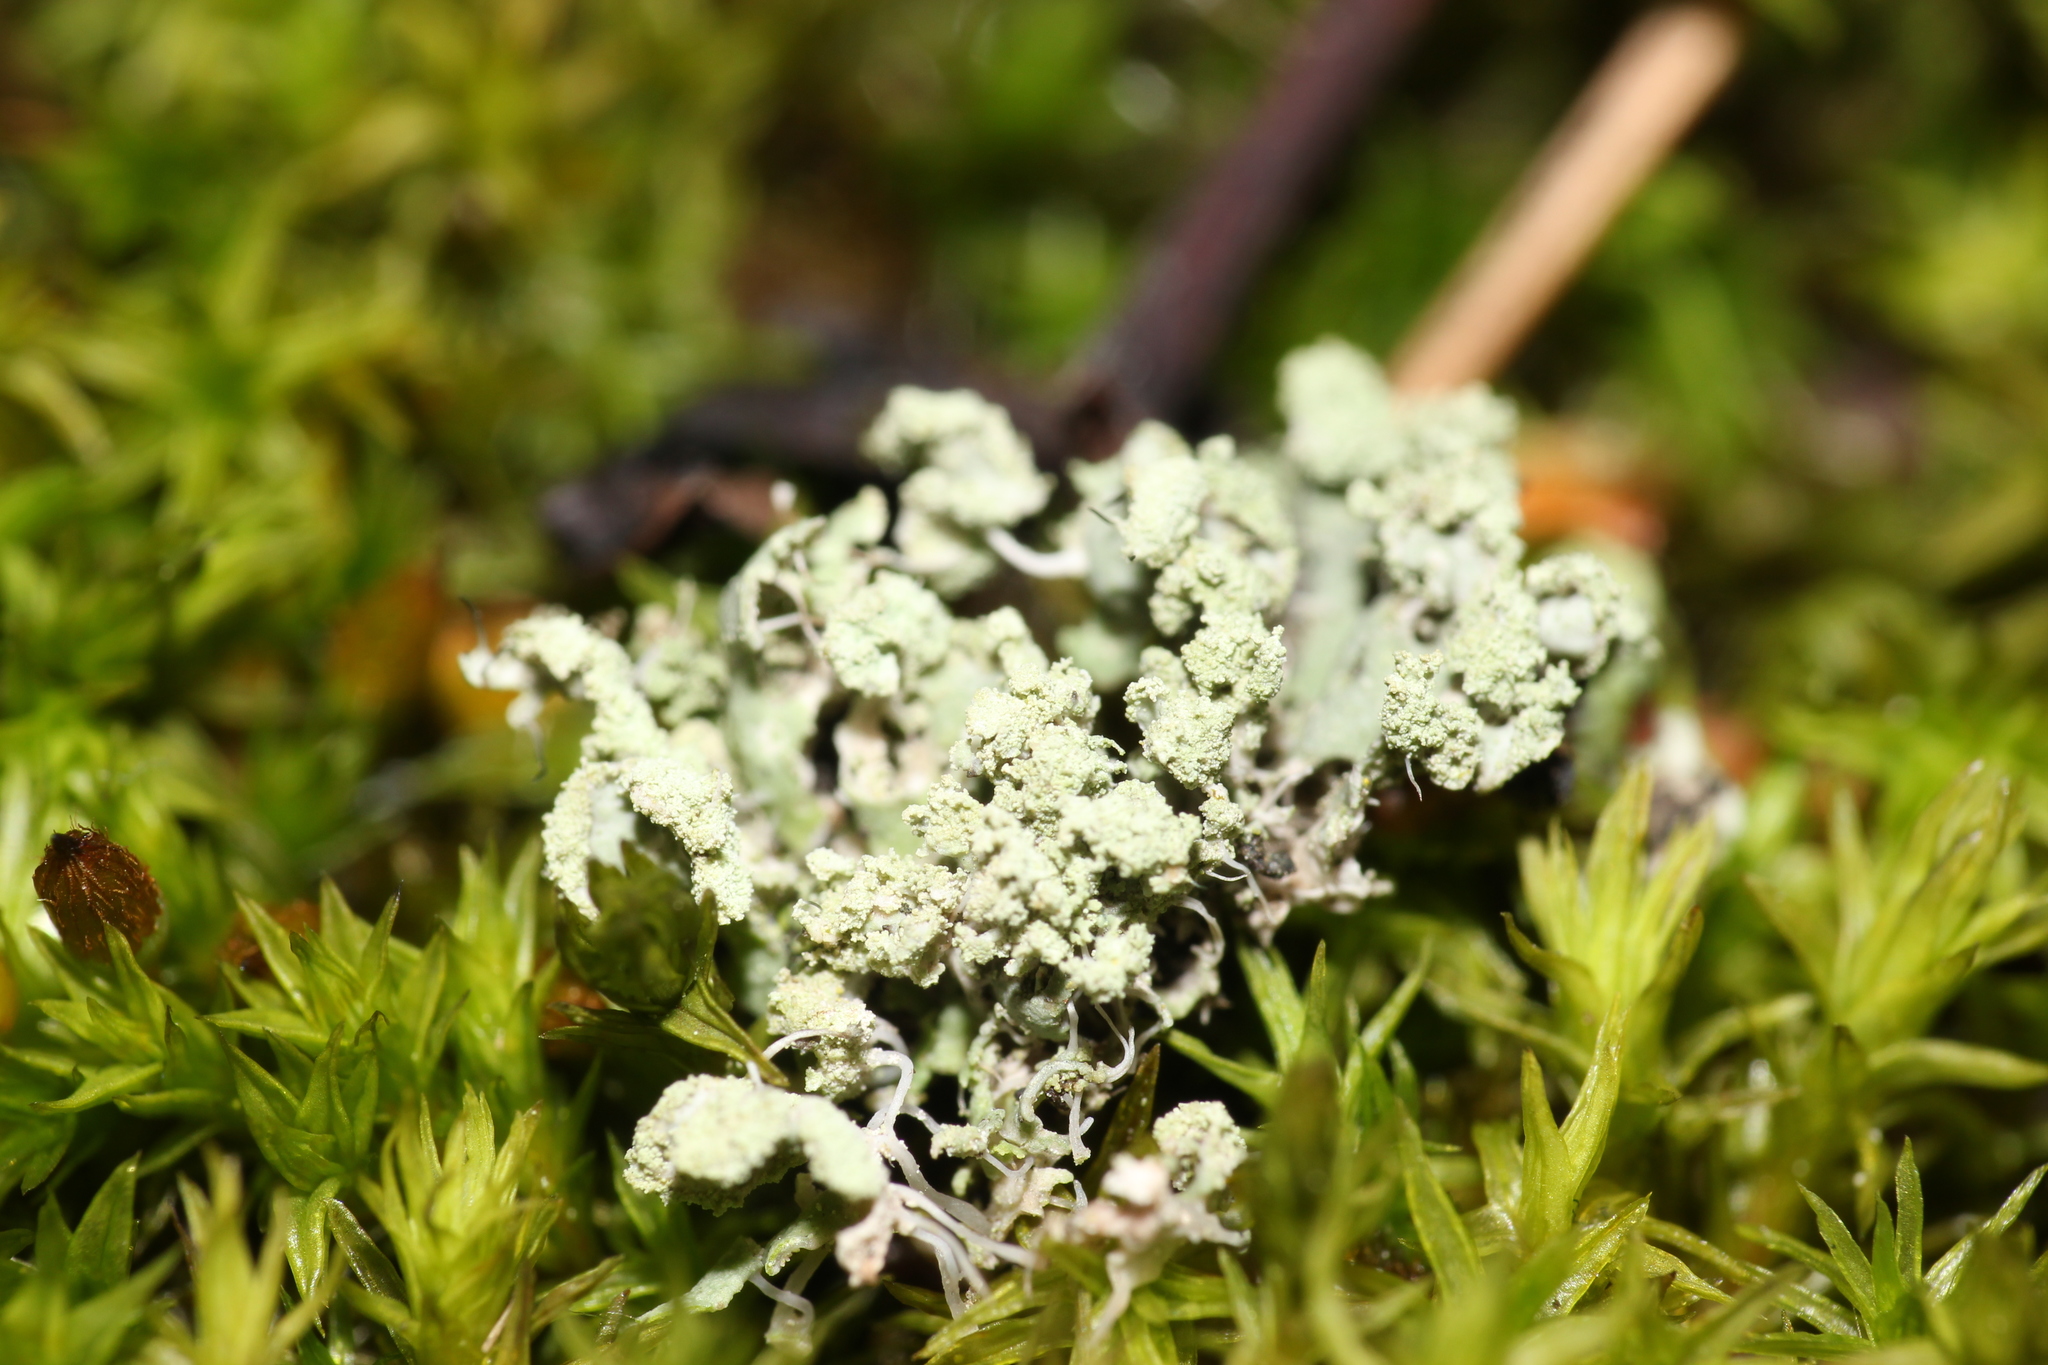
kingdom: Fungi
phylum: Ascomycota
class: Lecanoromycetes
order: Caliciales
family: Physciaceae
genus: Physcia
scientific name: Physcia tenella
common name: Fringed rosette lichen
